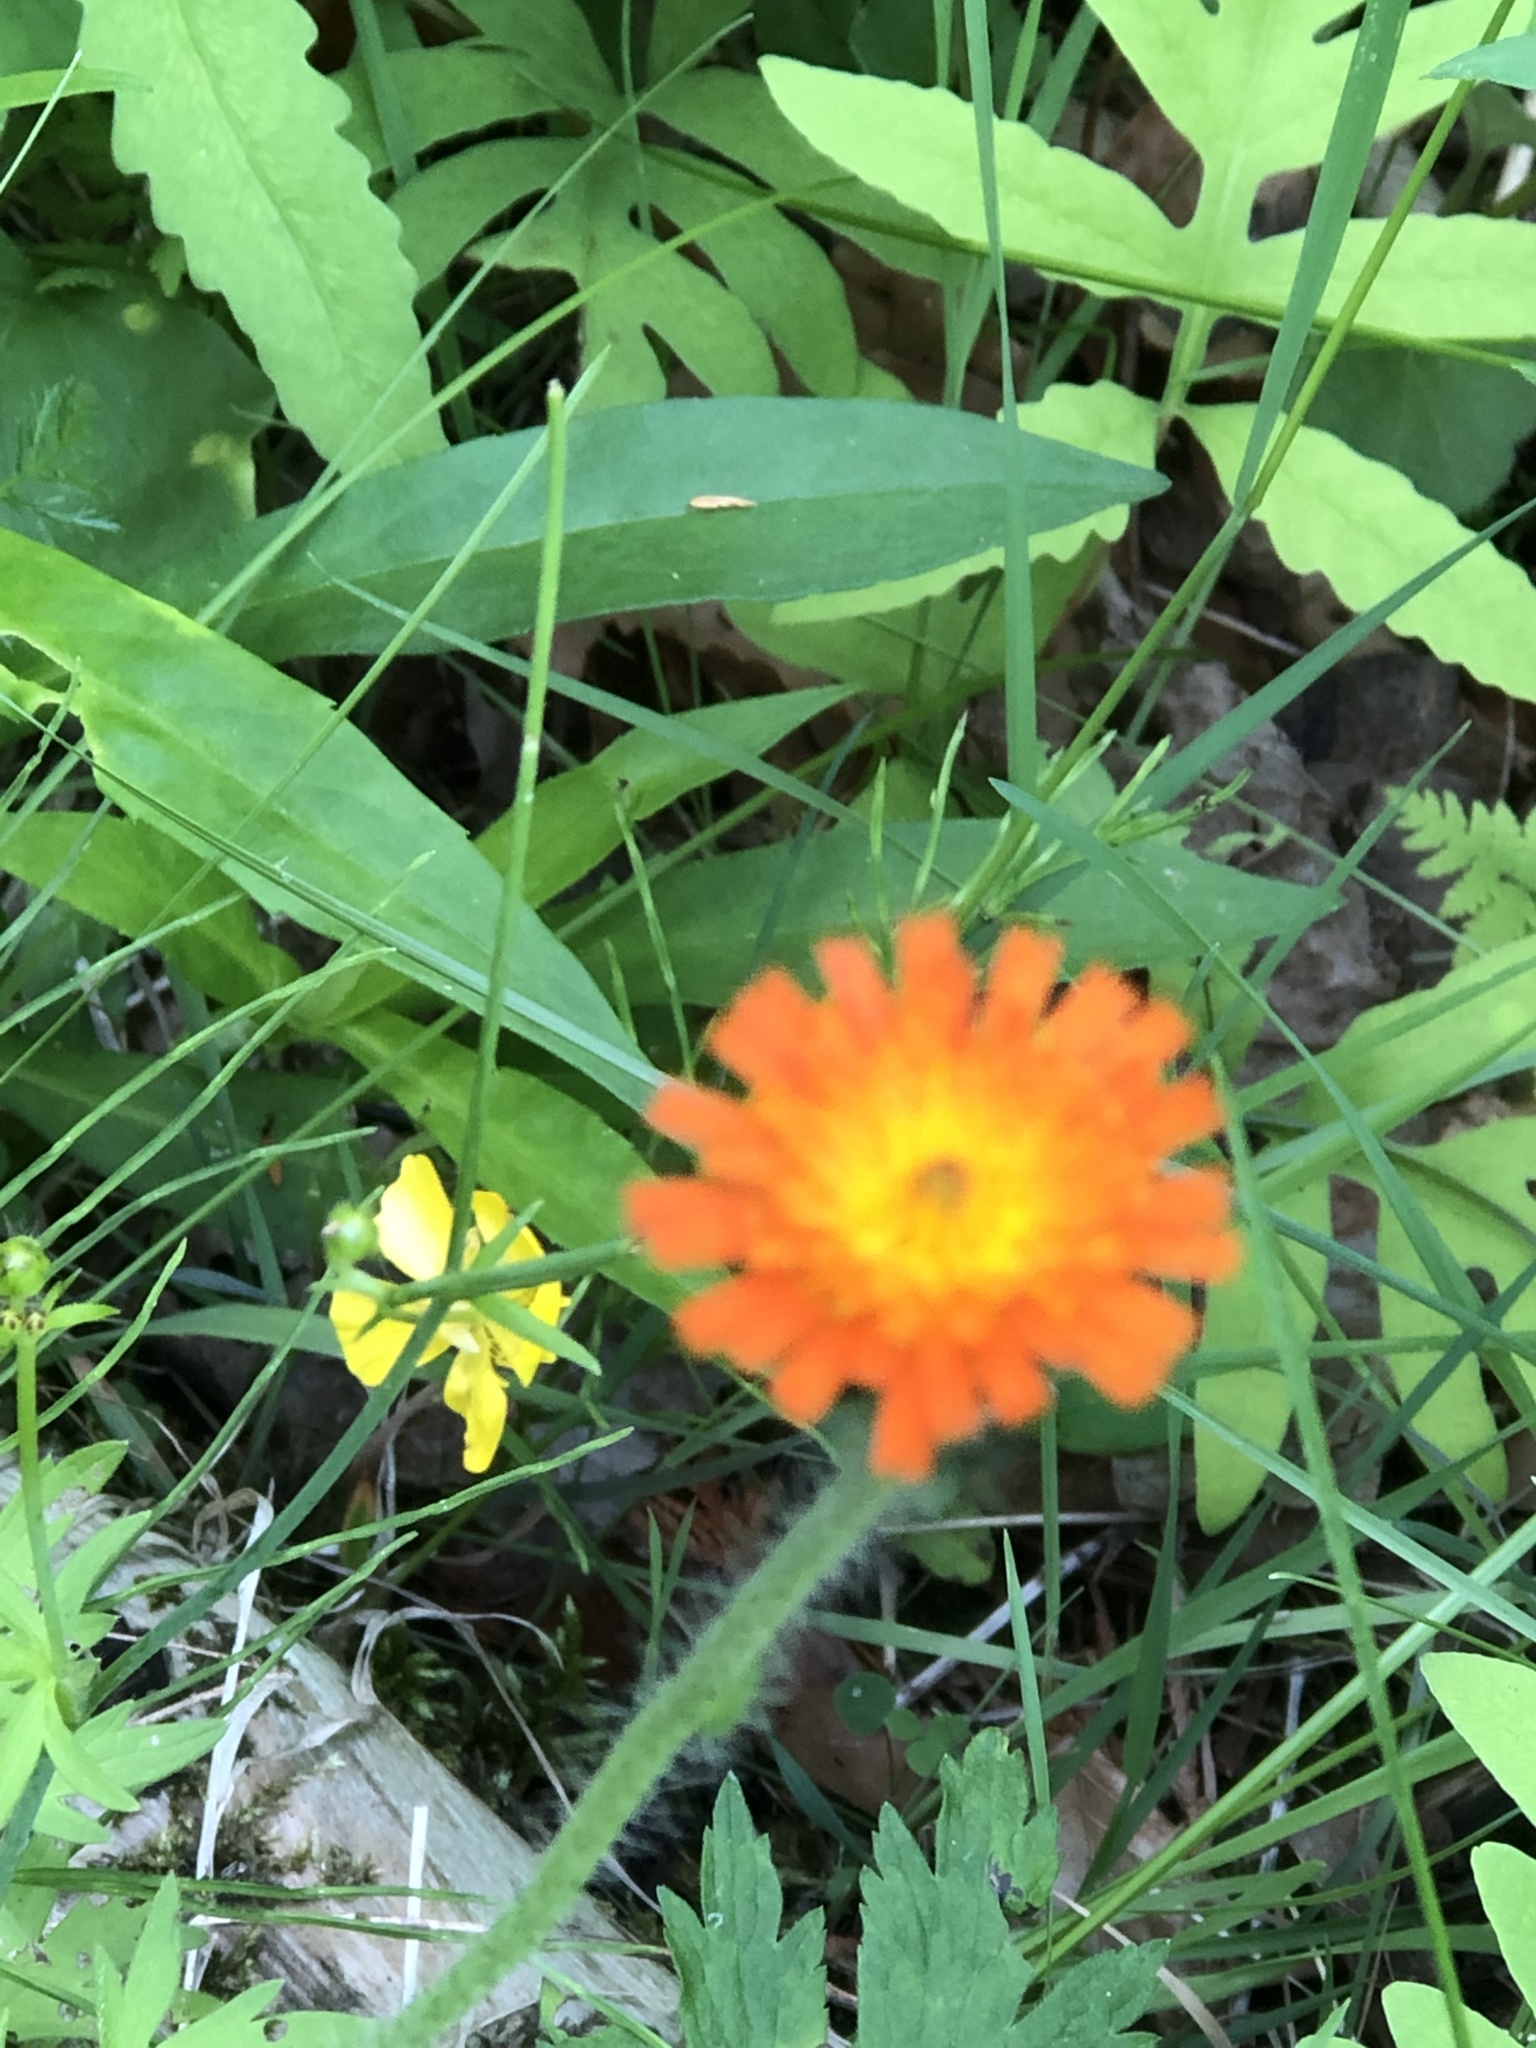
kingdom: Plantae
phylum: Tracheophyta
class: Magnoliopsida
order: Asterales
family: Asteraceae
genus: Pilosella
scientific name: Pilosella aurantiaca
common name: Fox-and-cubs
